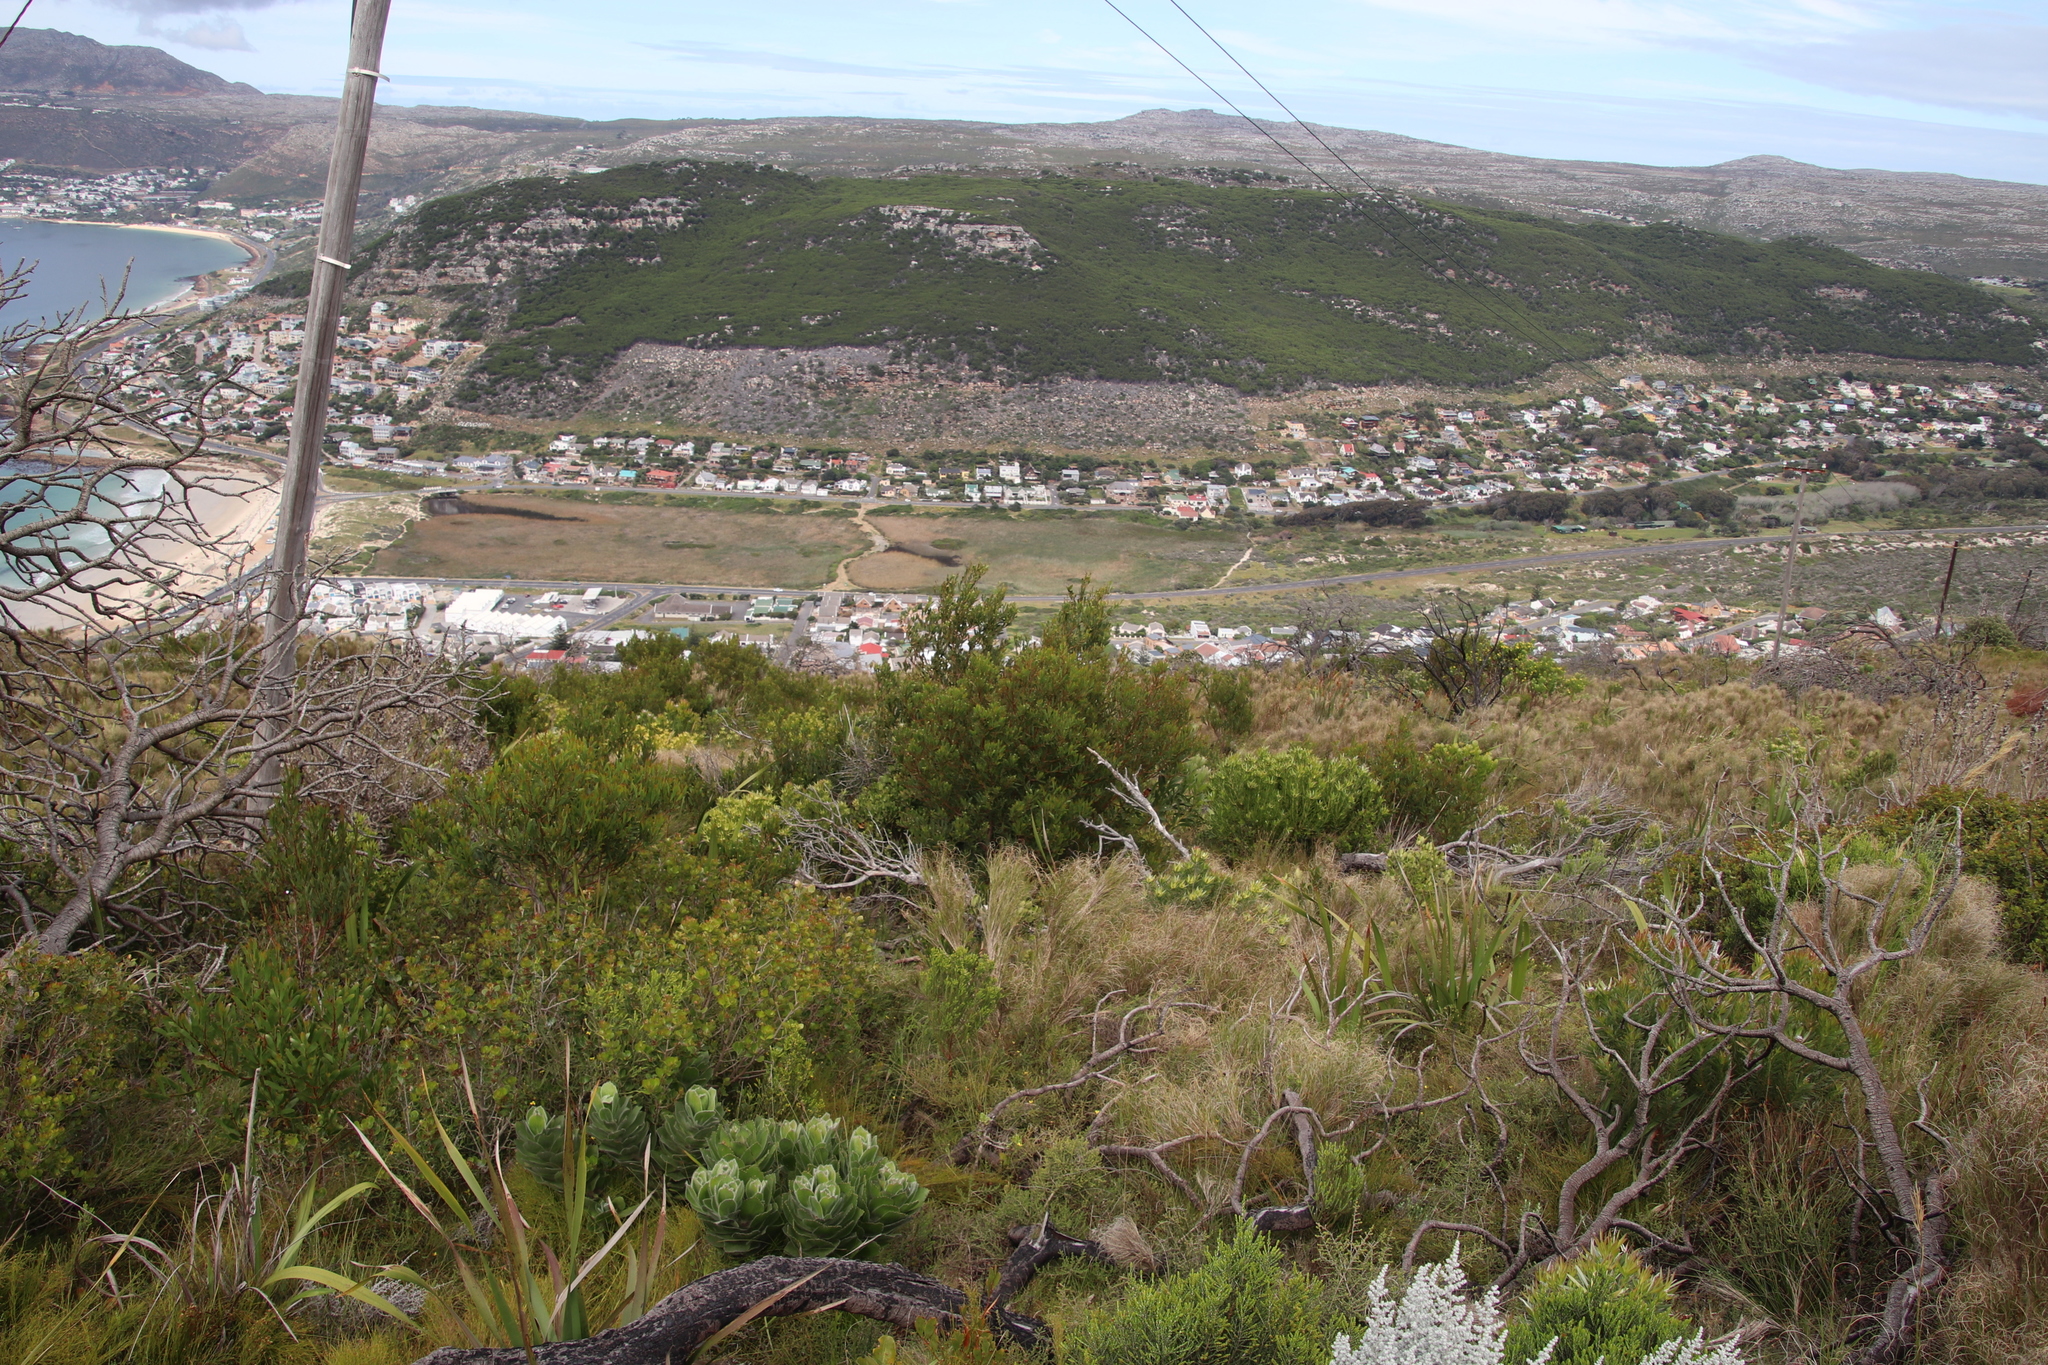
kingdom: Plantae
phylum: Tracheophyta
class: Magnoliopsida
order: Fabales
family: Fabaceae
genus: Acacia
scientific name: Acacia cyclops
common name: Coastal wattle
